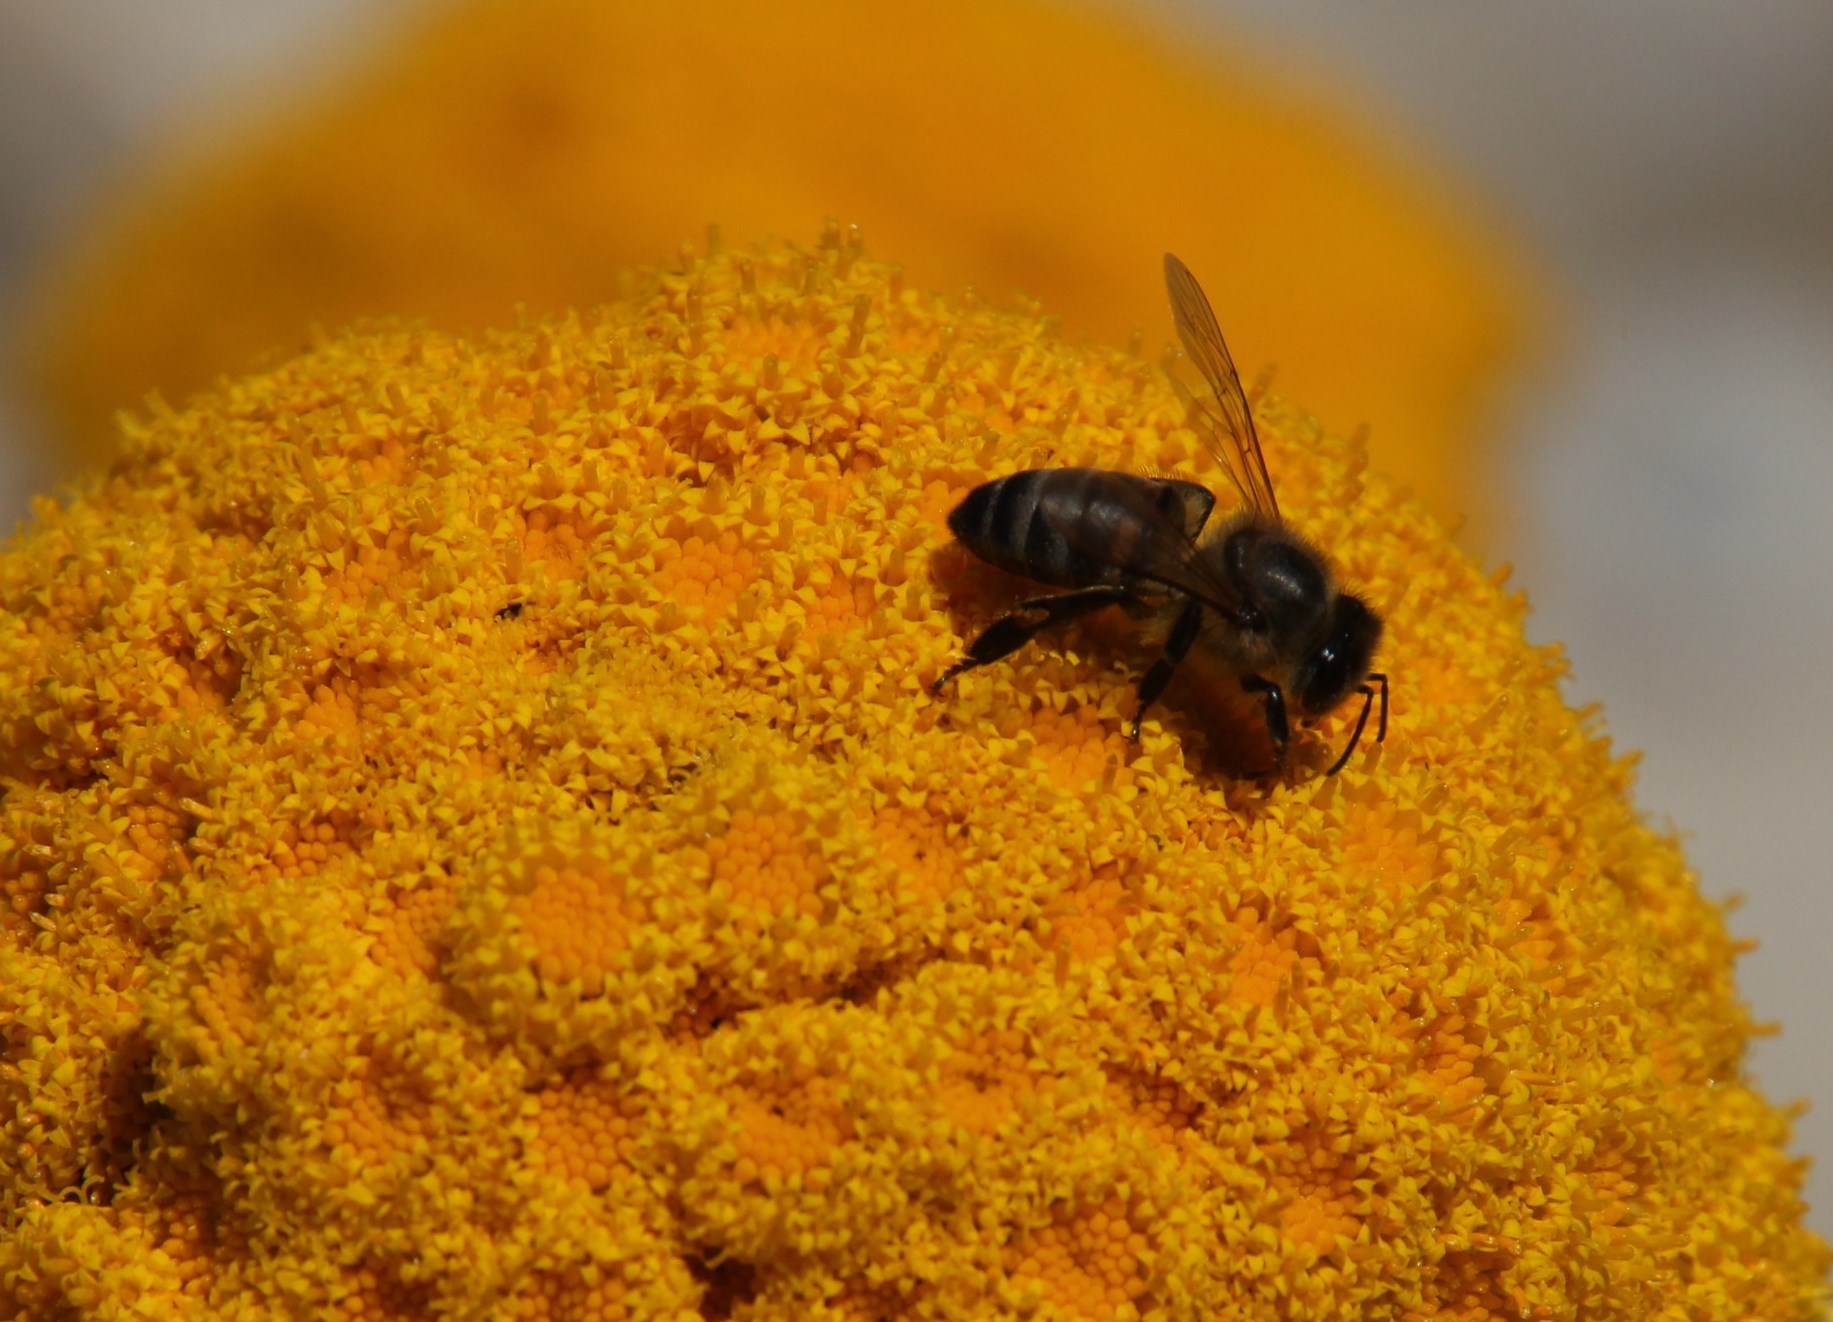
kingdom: Animalia
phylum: Arthropoda
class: Insecta
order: Hymenoptera
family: Apidae
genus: Apis
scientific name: Apis mellifera
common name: Honey bee
